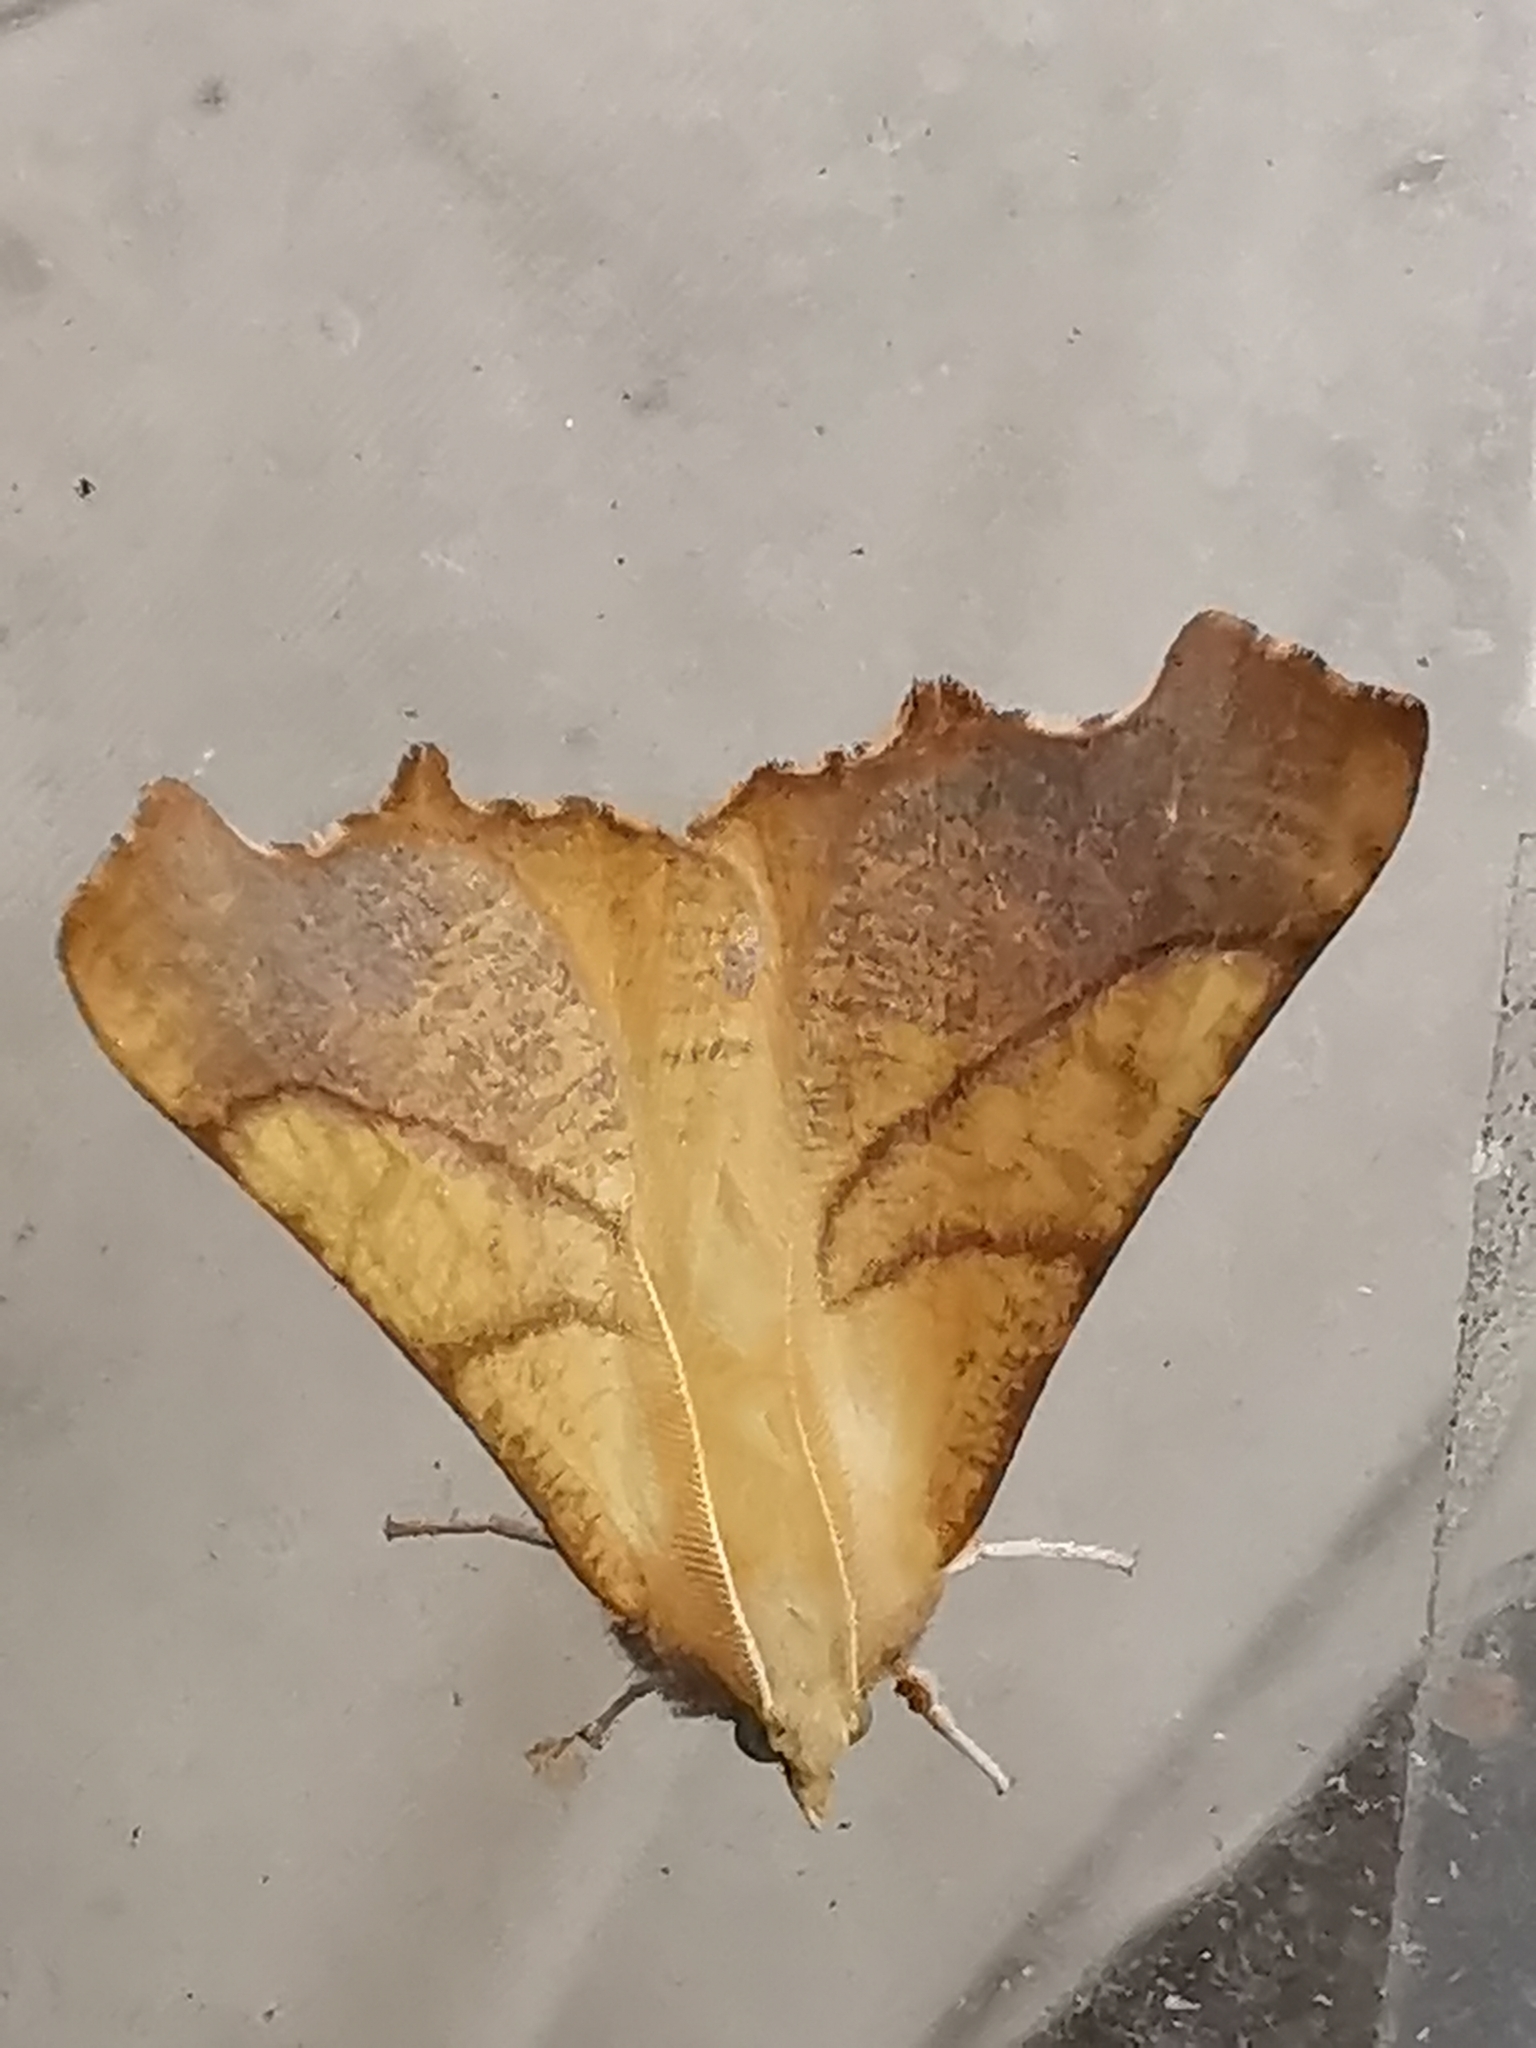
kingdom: Animalia
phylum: Arthropoda
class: Insecta
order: Lepidoptera
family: Geometridae
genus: Ennomos
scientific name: Ennomos fuscantaria
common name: Dusky thorn
